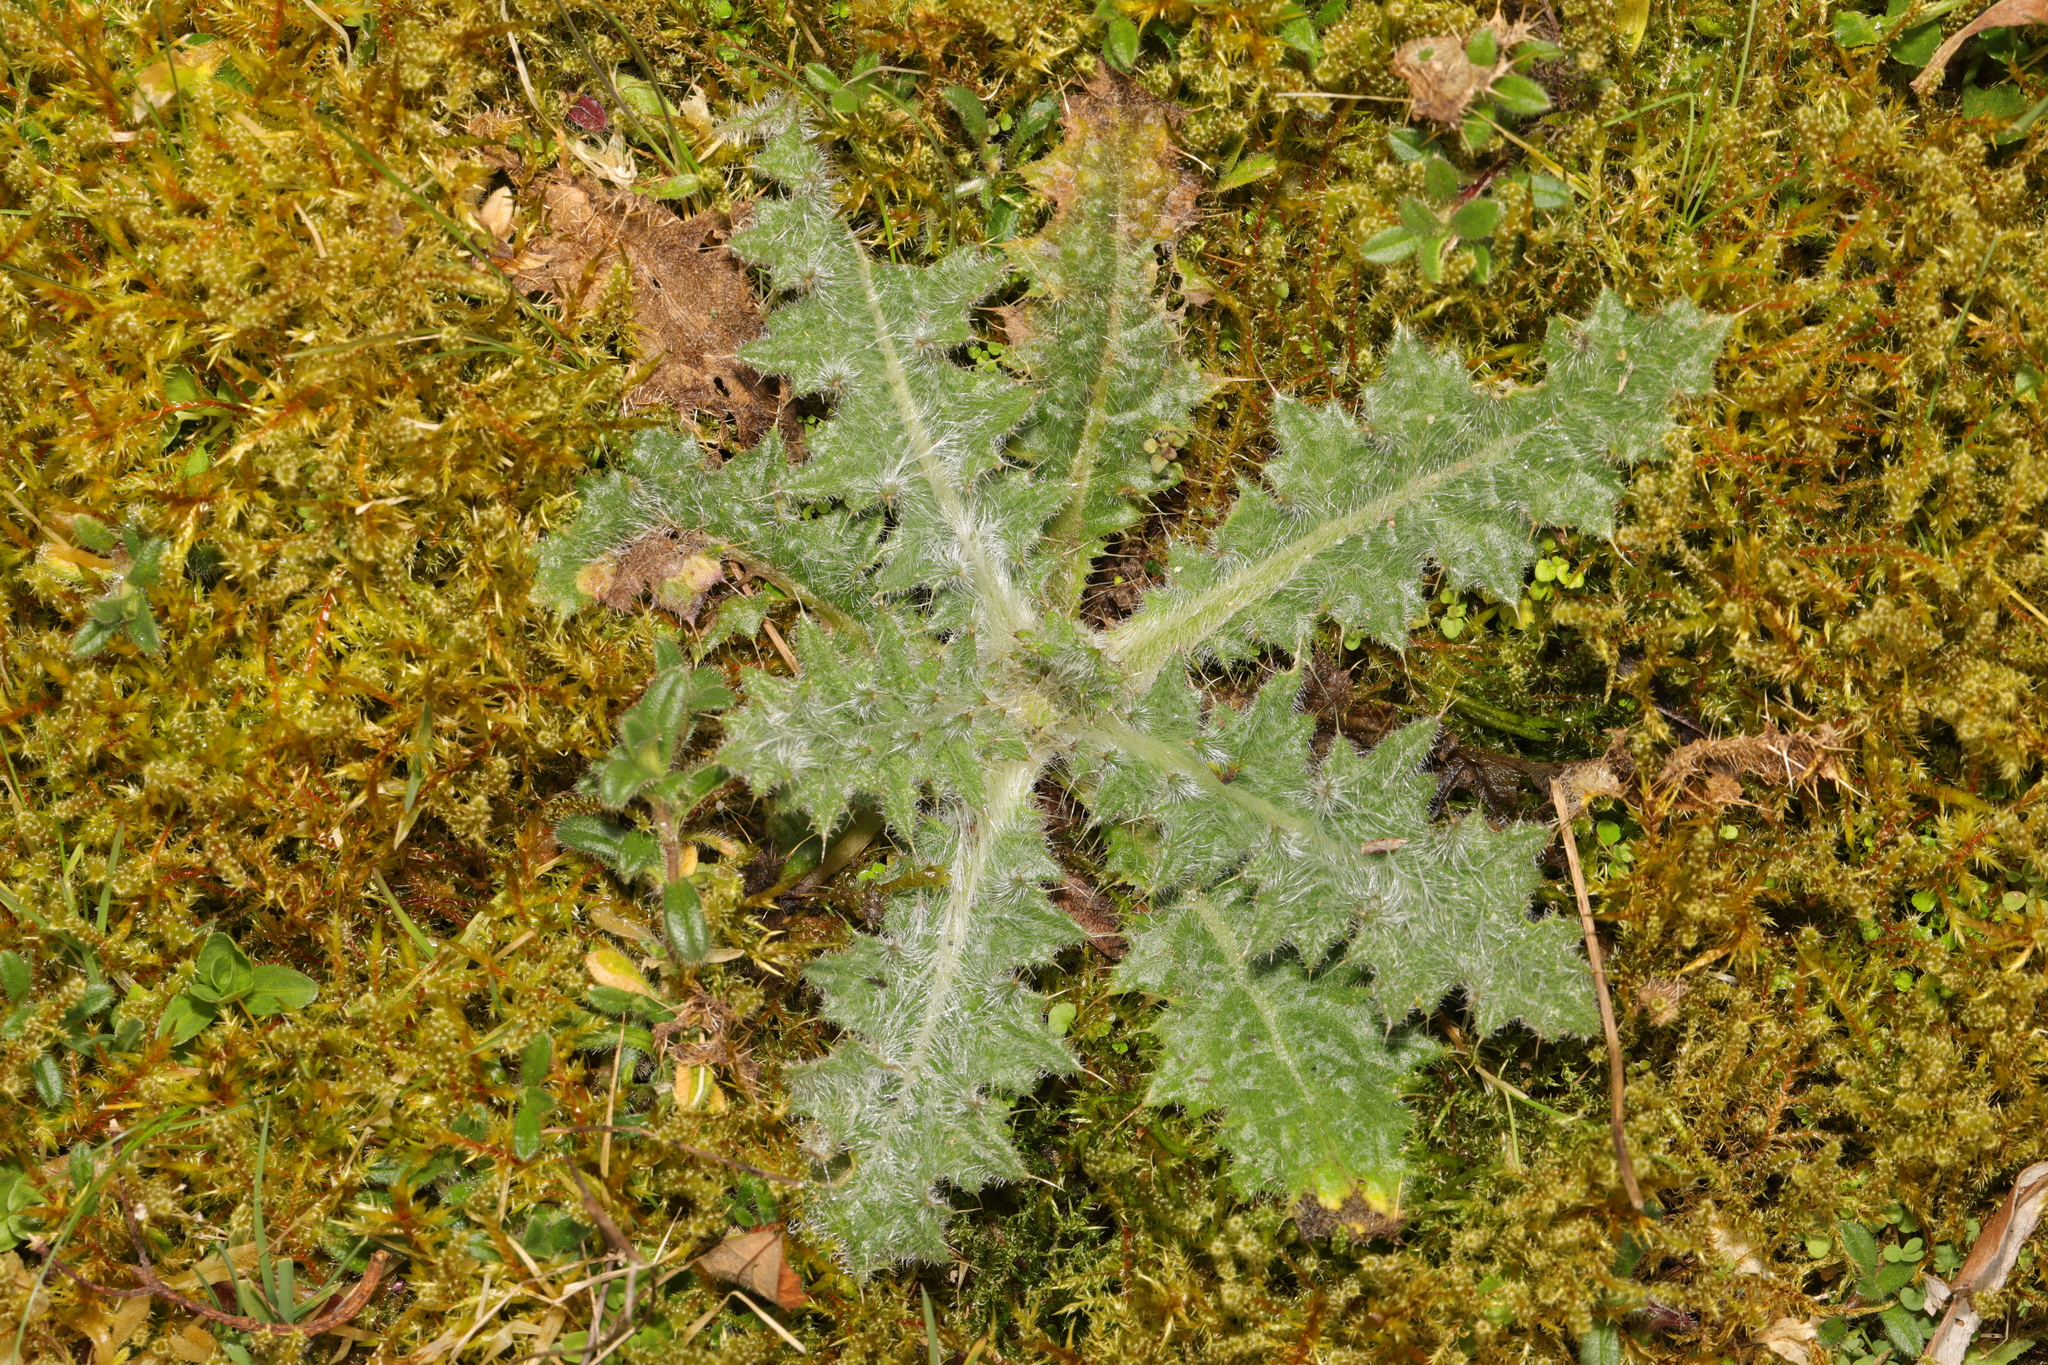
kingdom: Plantae
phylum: Tracheophyta
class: Magnoliopsida
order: Asterales
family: Asteraceae
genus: Cirsium
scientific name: Cirsium vulgare
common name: Bull thistle
